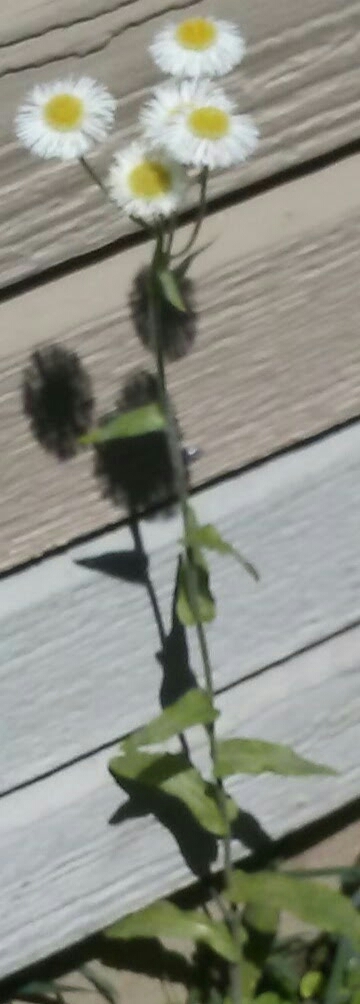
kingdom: Plantae
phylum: Tracheophyta
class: Magnoliopsida
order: Asterales
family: Asteraceae
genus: Erigeron
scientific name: Erigeron philadelphicus
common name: Robin's-plantain
